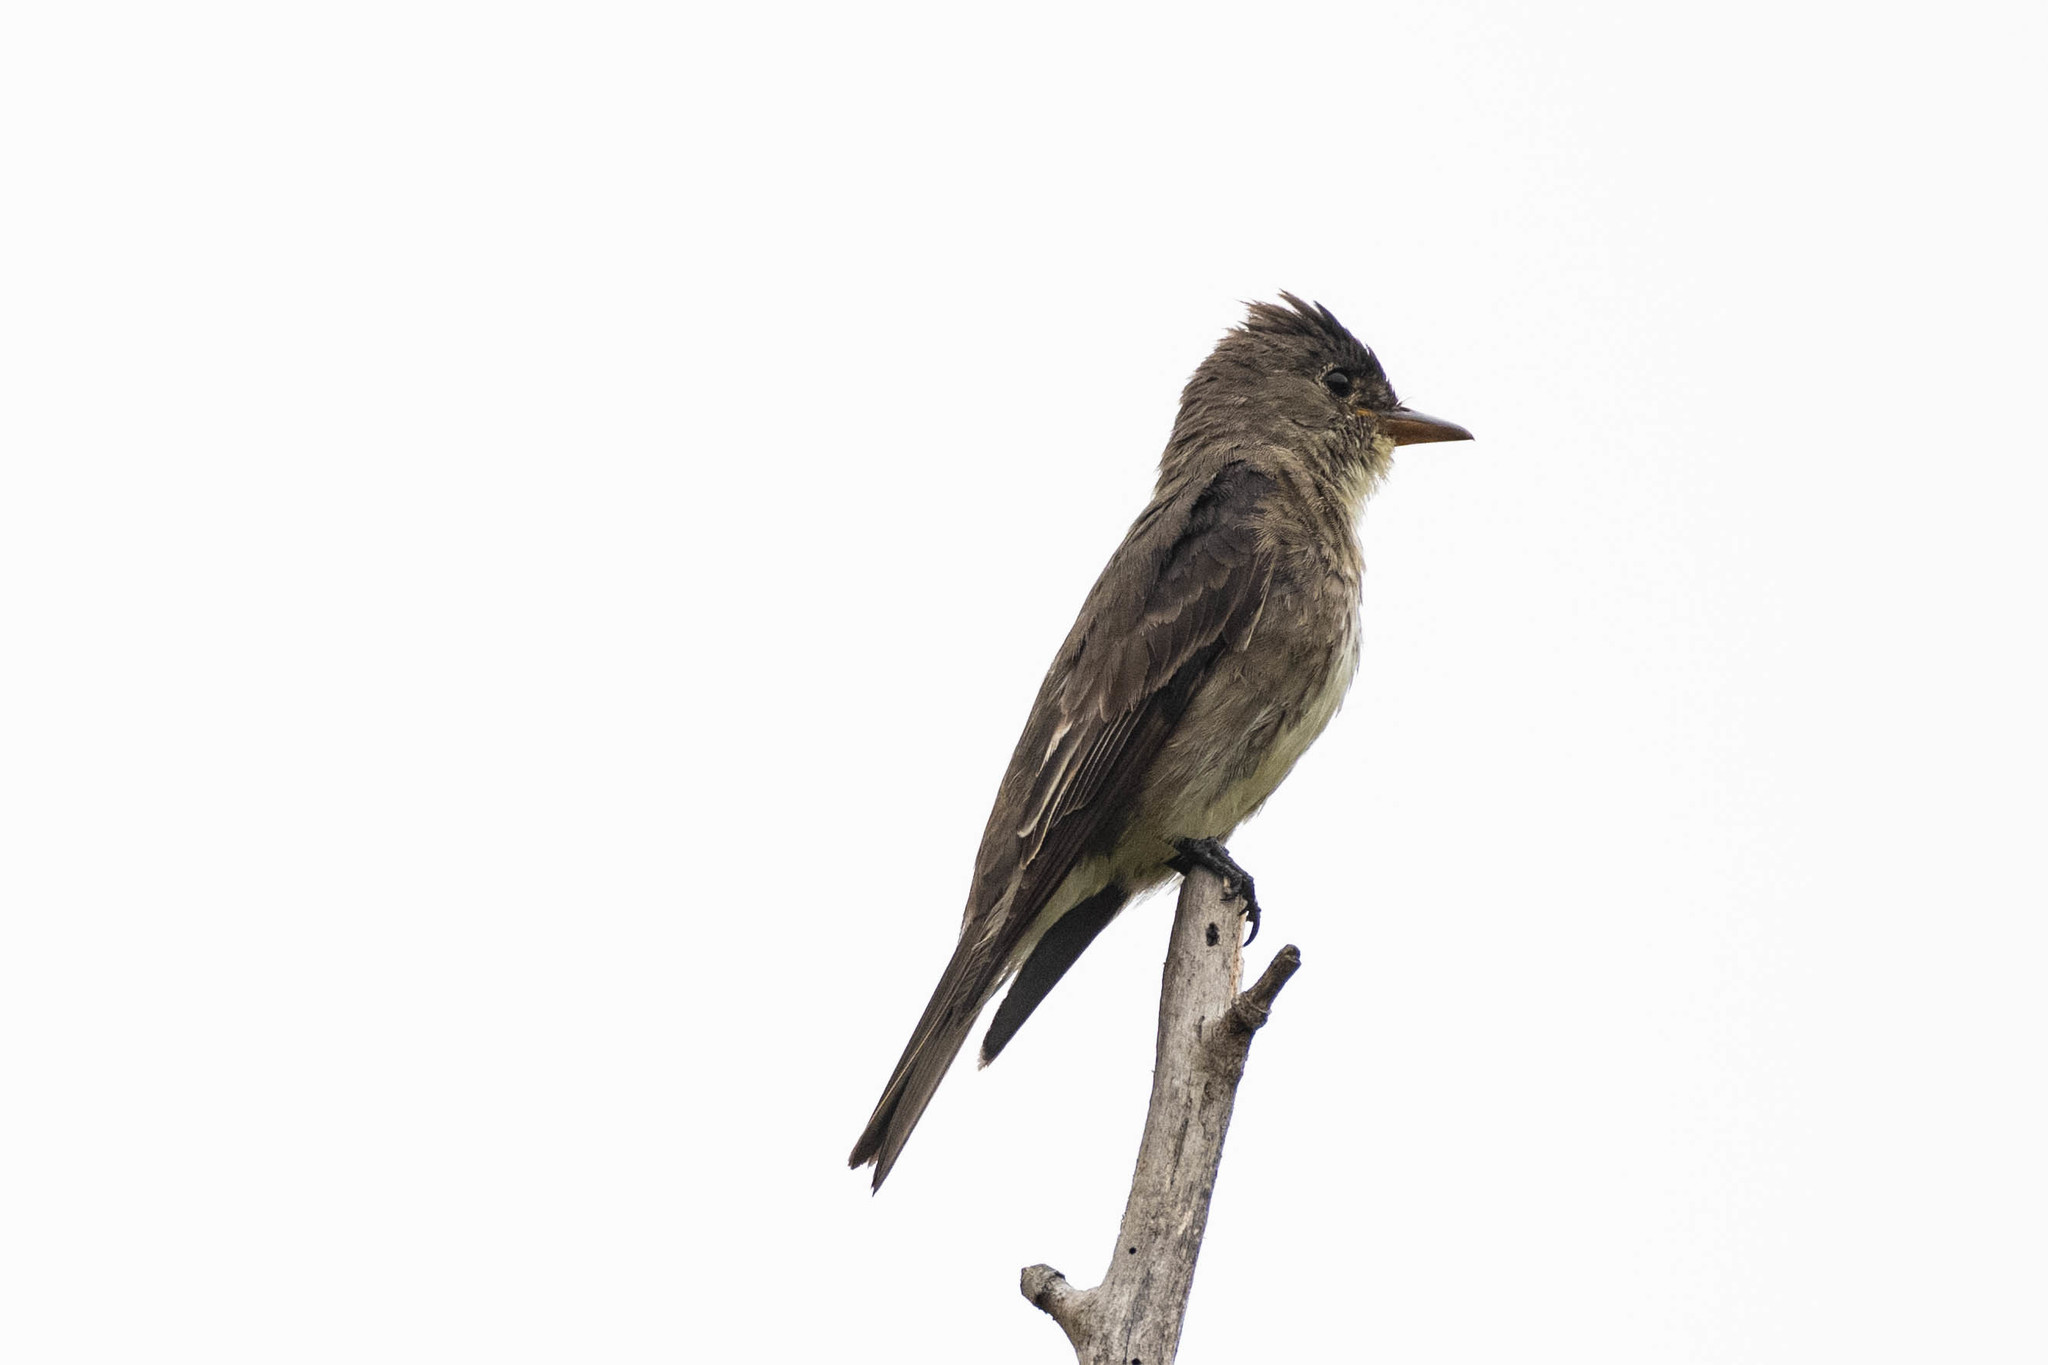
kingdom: Animalia
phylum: Chordata
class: Aves
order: Passeriformes
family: Tyrannidae
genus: Contopus
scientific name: Contopus cooperi
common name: Olive-sided flycatcher
